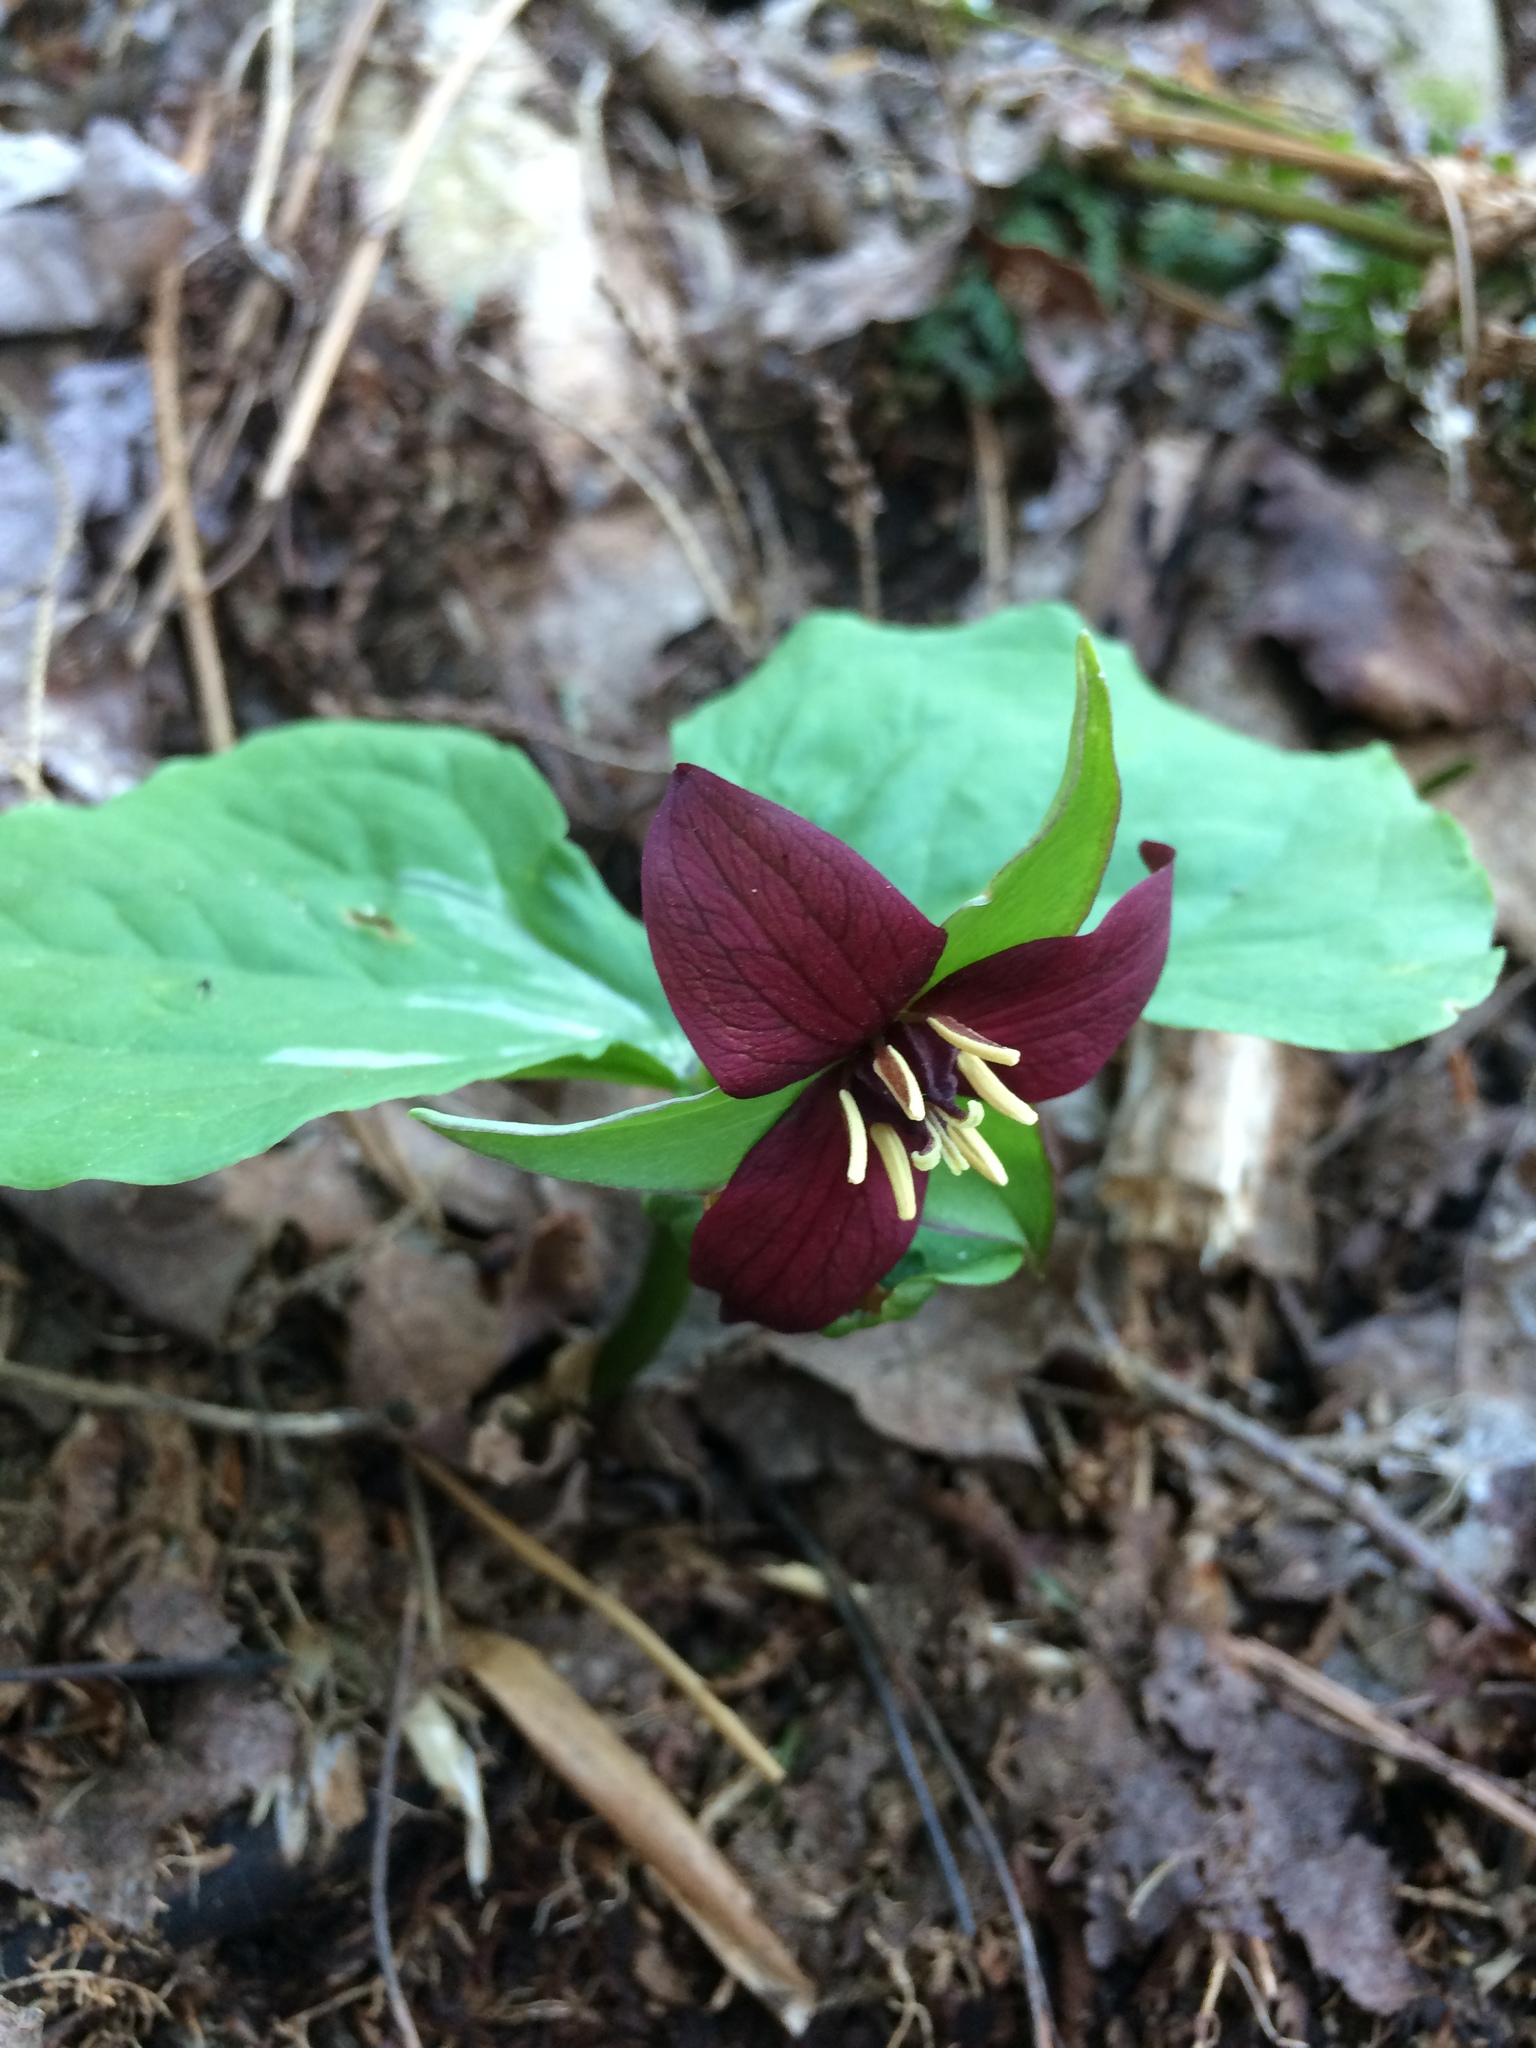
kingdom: Plantae
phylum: Tracheophyta
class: Liliopsida
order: Liliales
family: Melanthiaceae
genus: Trillium
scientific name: Trillium erectum
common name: Purple trillium
